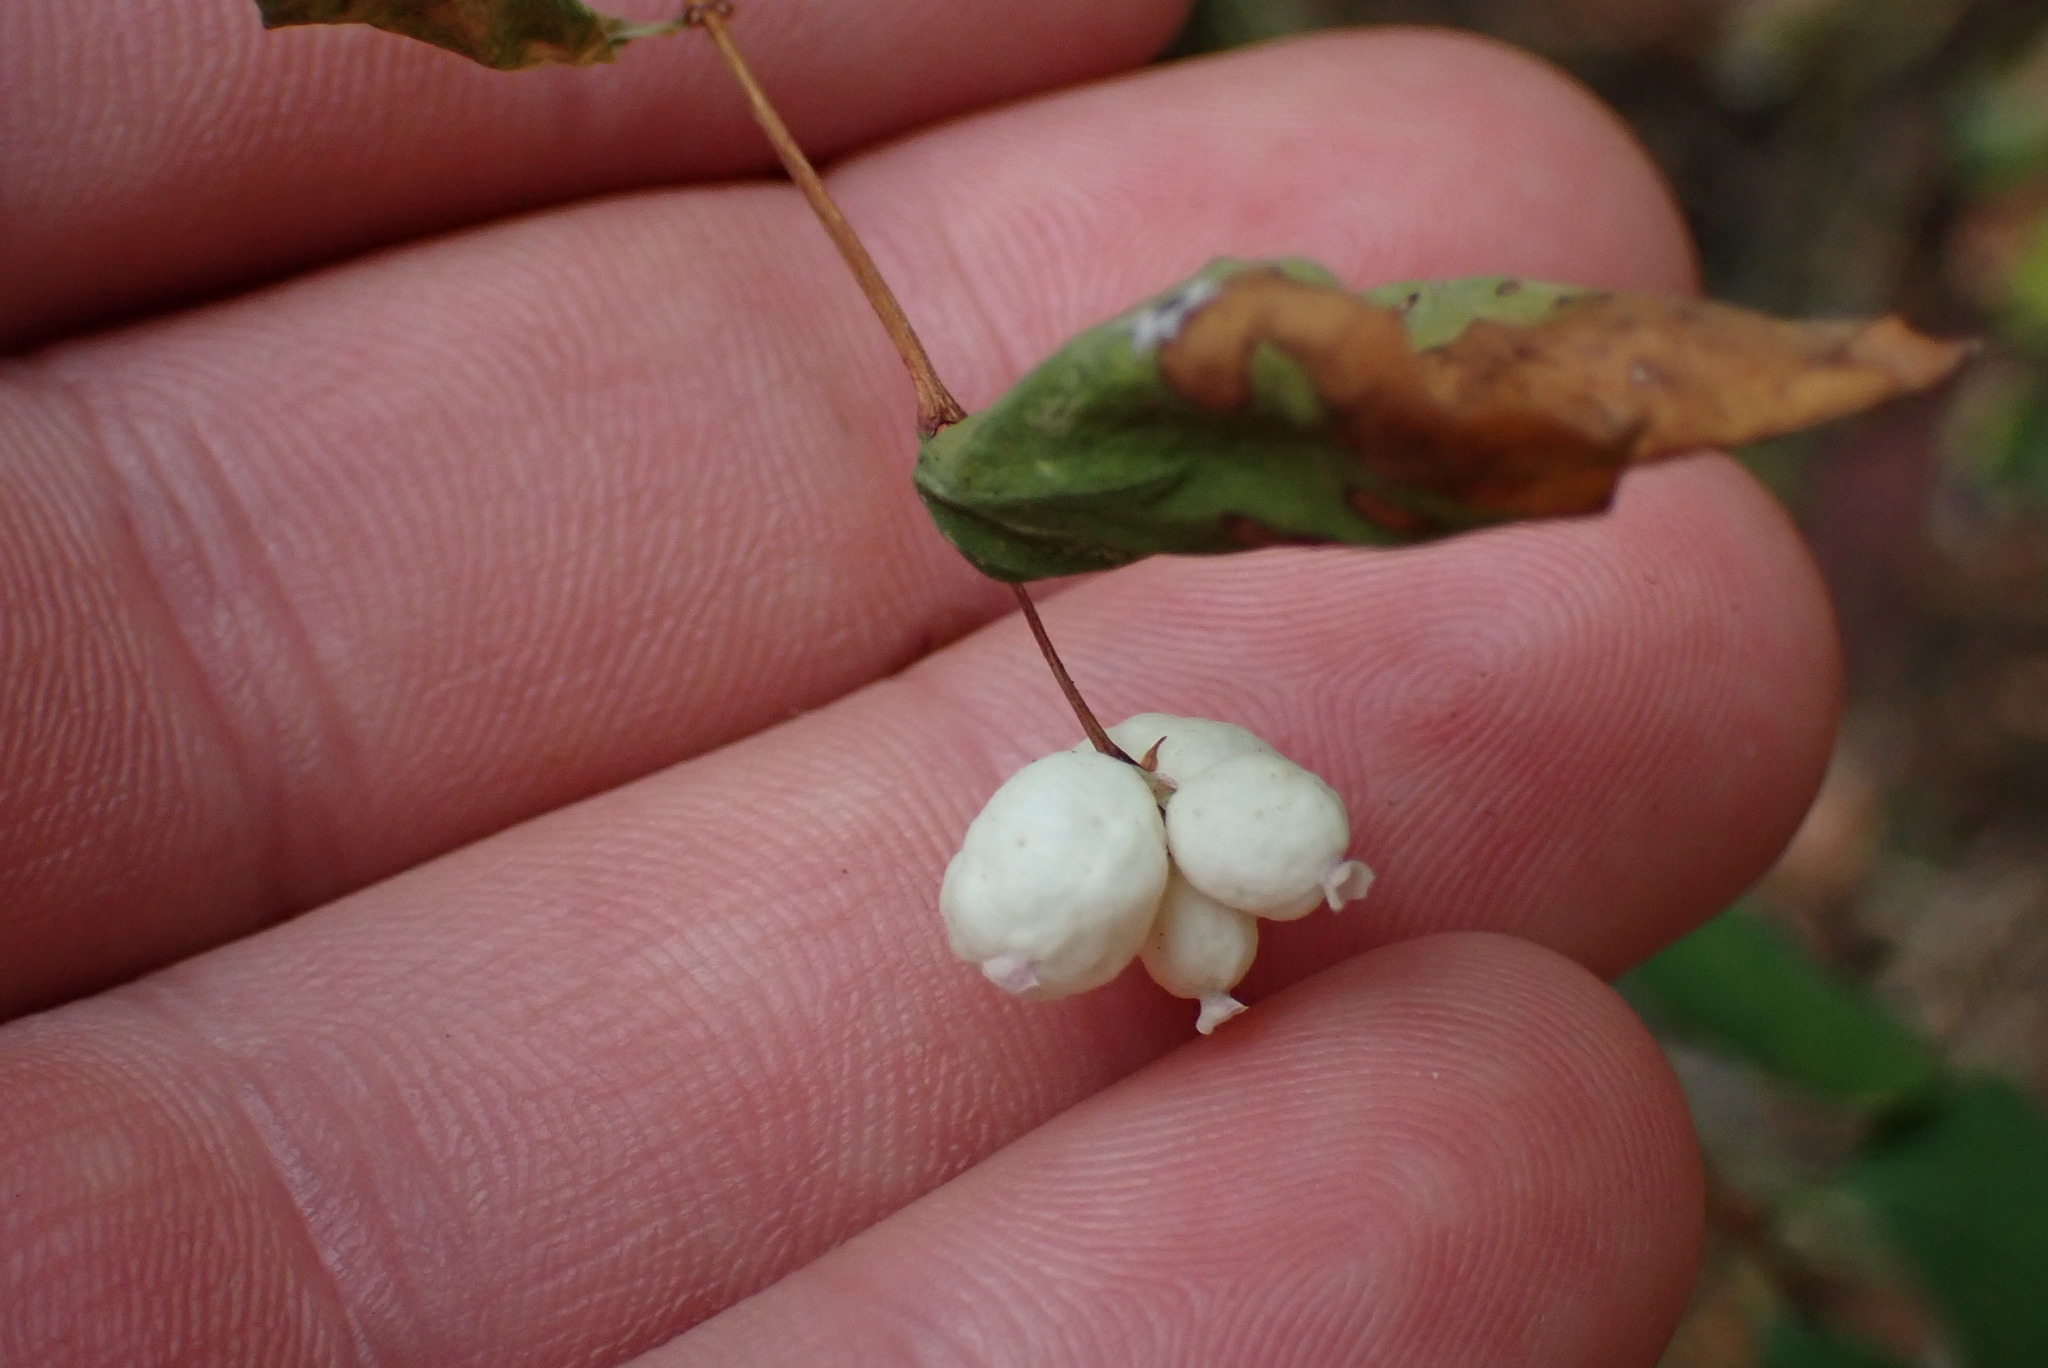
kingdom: Plantae
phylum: Tracheophyta
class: Magnoliopsida
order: Dipsacales
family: Caprifoliaceae
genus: Symphoricarpos
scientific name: Symphoricarpos albus
